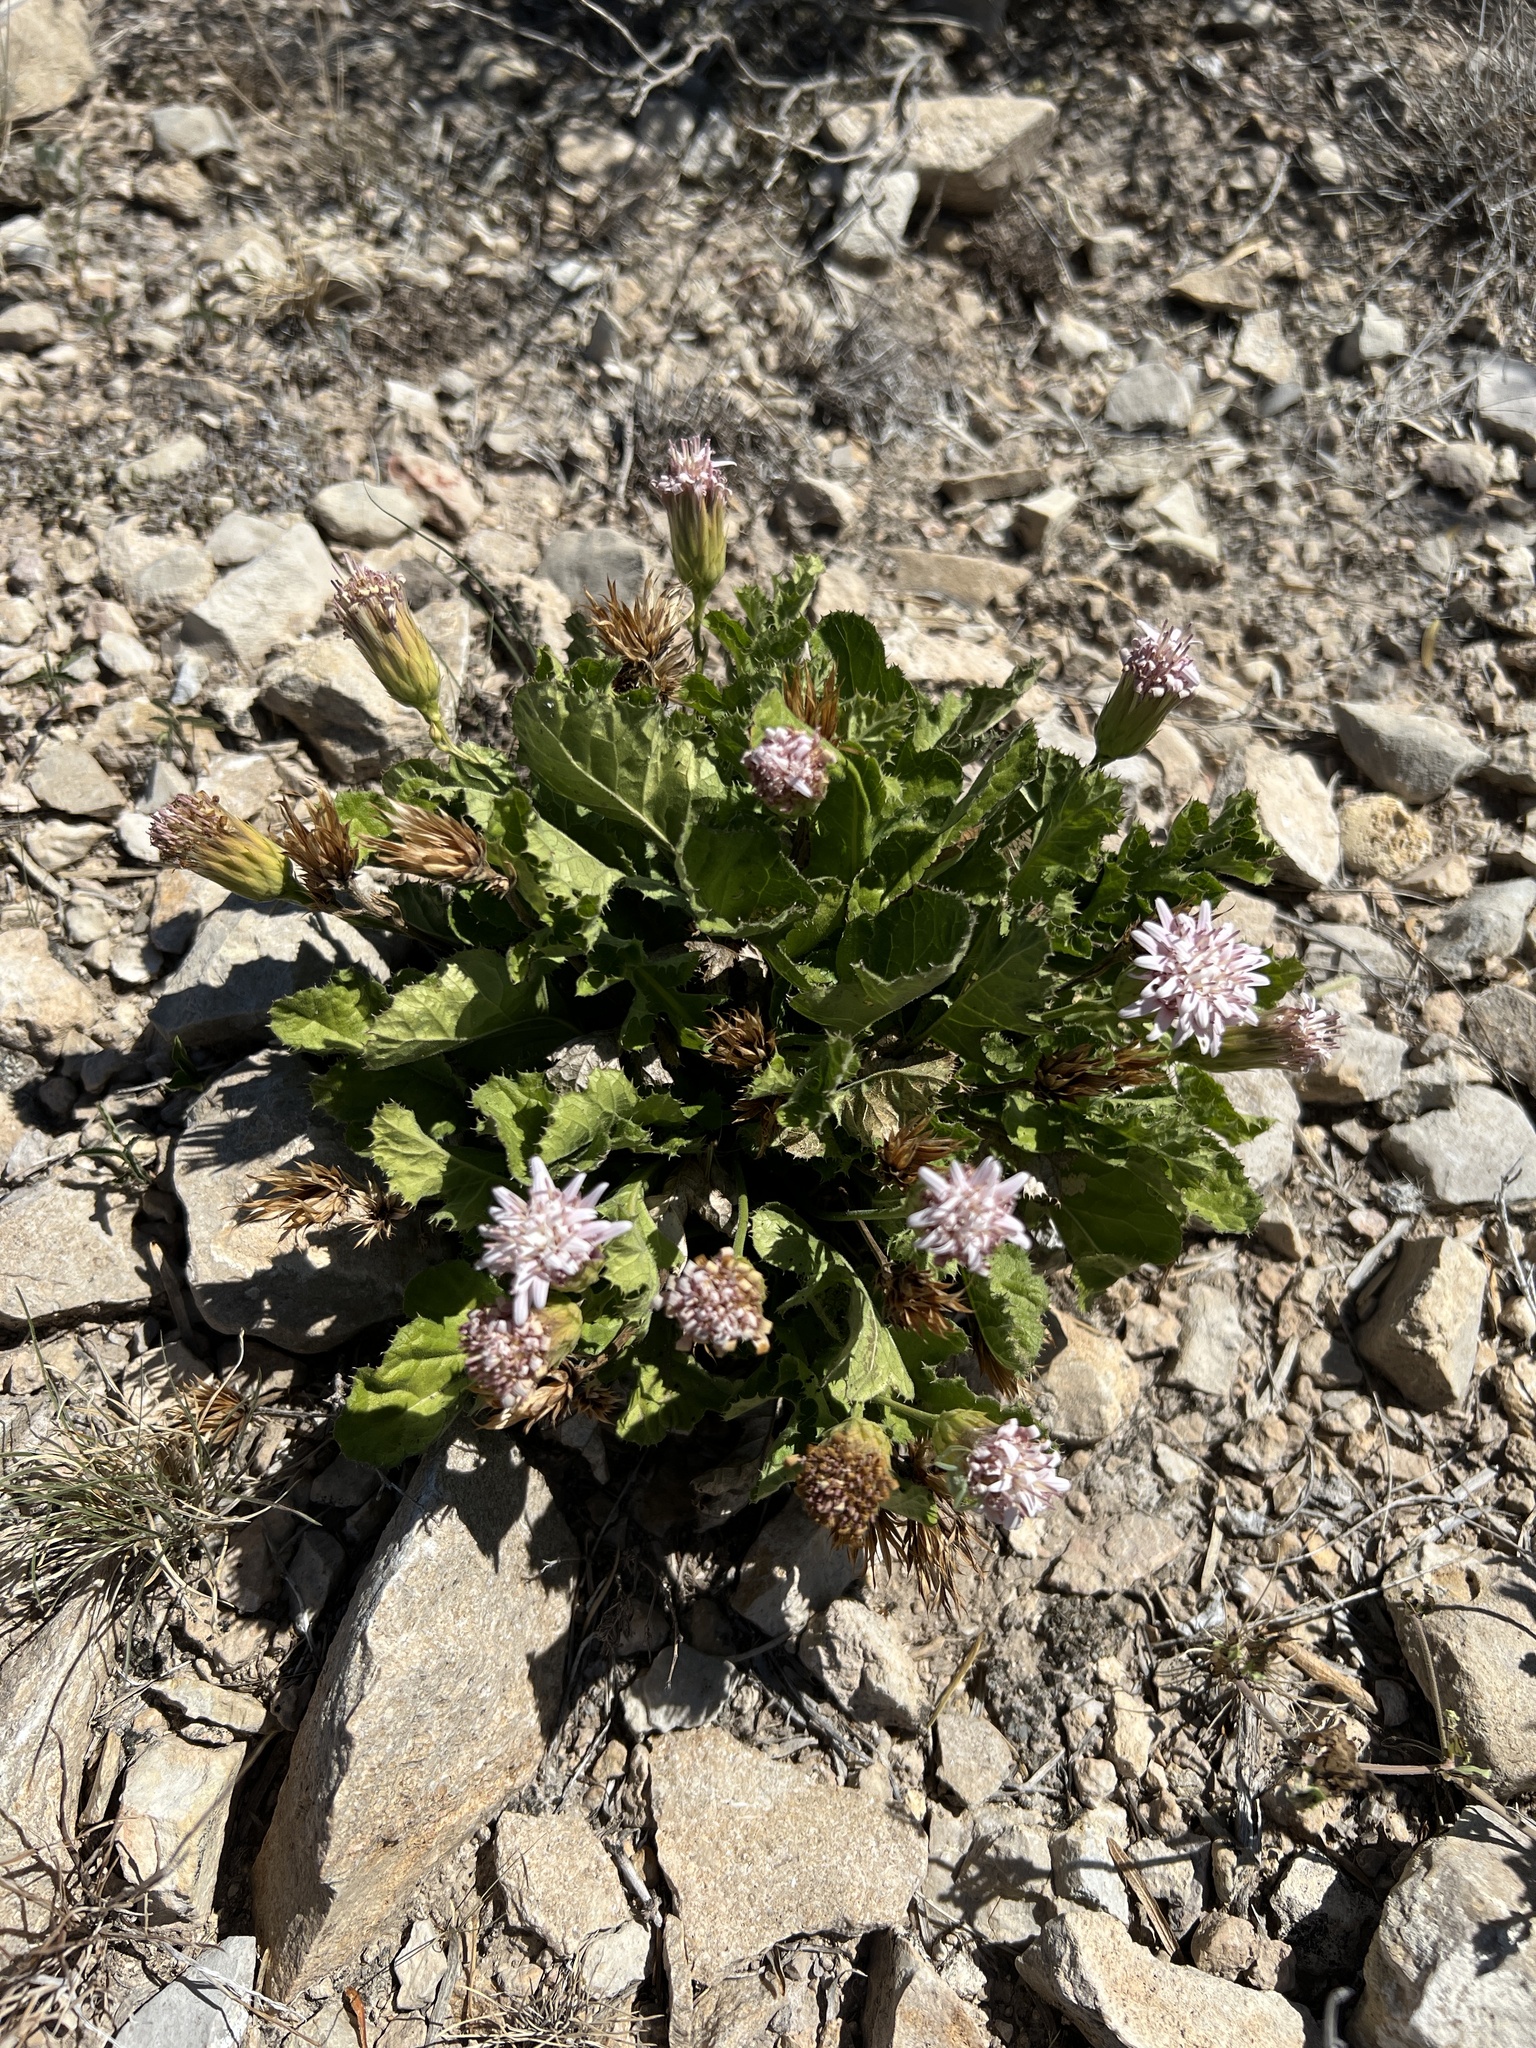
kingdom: Plantae
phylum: Tracheophyta
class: Magnoliopsida
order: Asterales
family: Asteraceae
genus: Acourtia
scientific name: Acourtia runcinata
